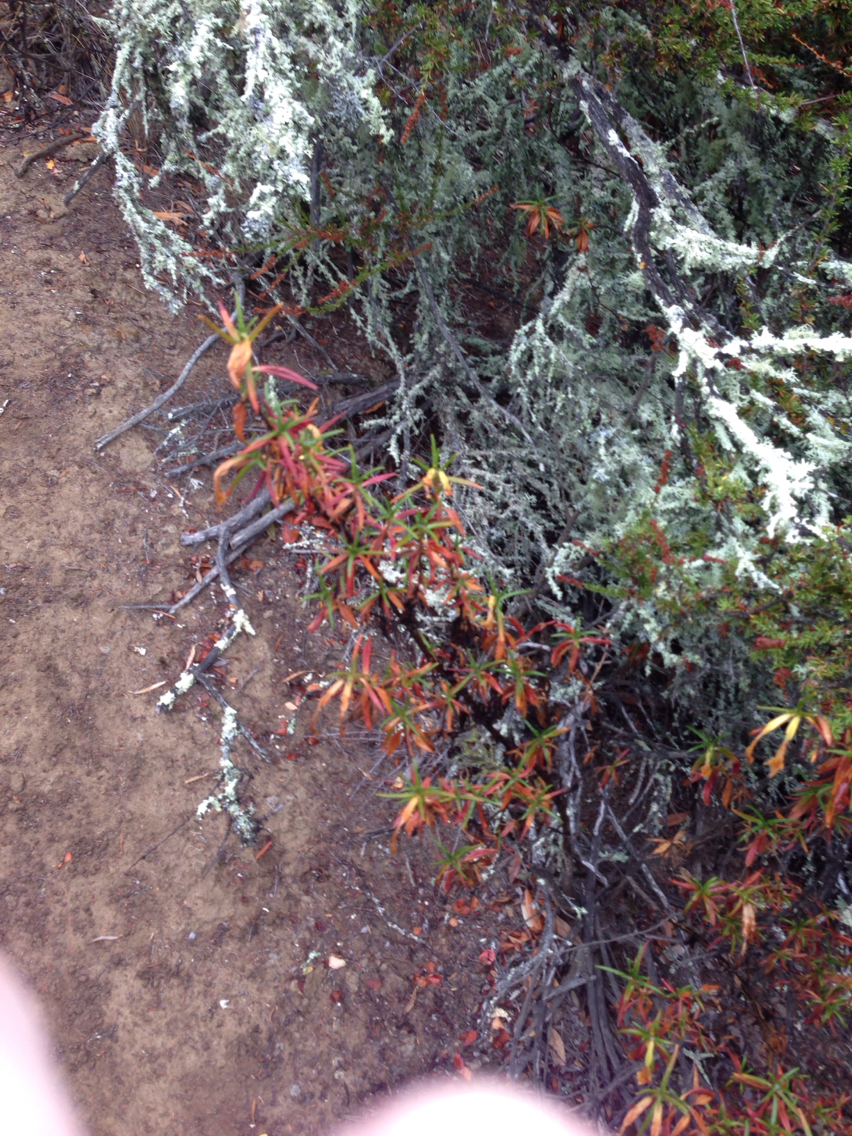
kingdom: Plantae
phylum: Tracheophyta
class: Magnoliopsida
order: Lamiales
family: Phrymaceae
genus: Diplacus
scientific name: Diplacus aurantiacus
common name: Bush monkey-flower
